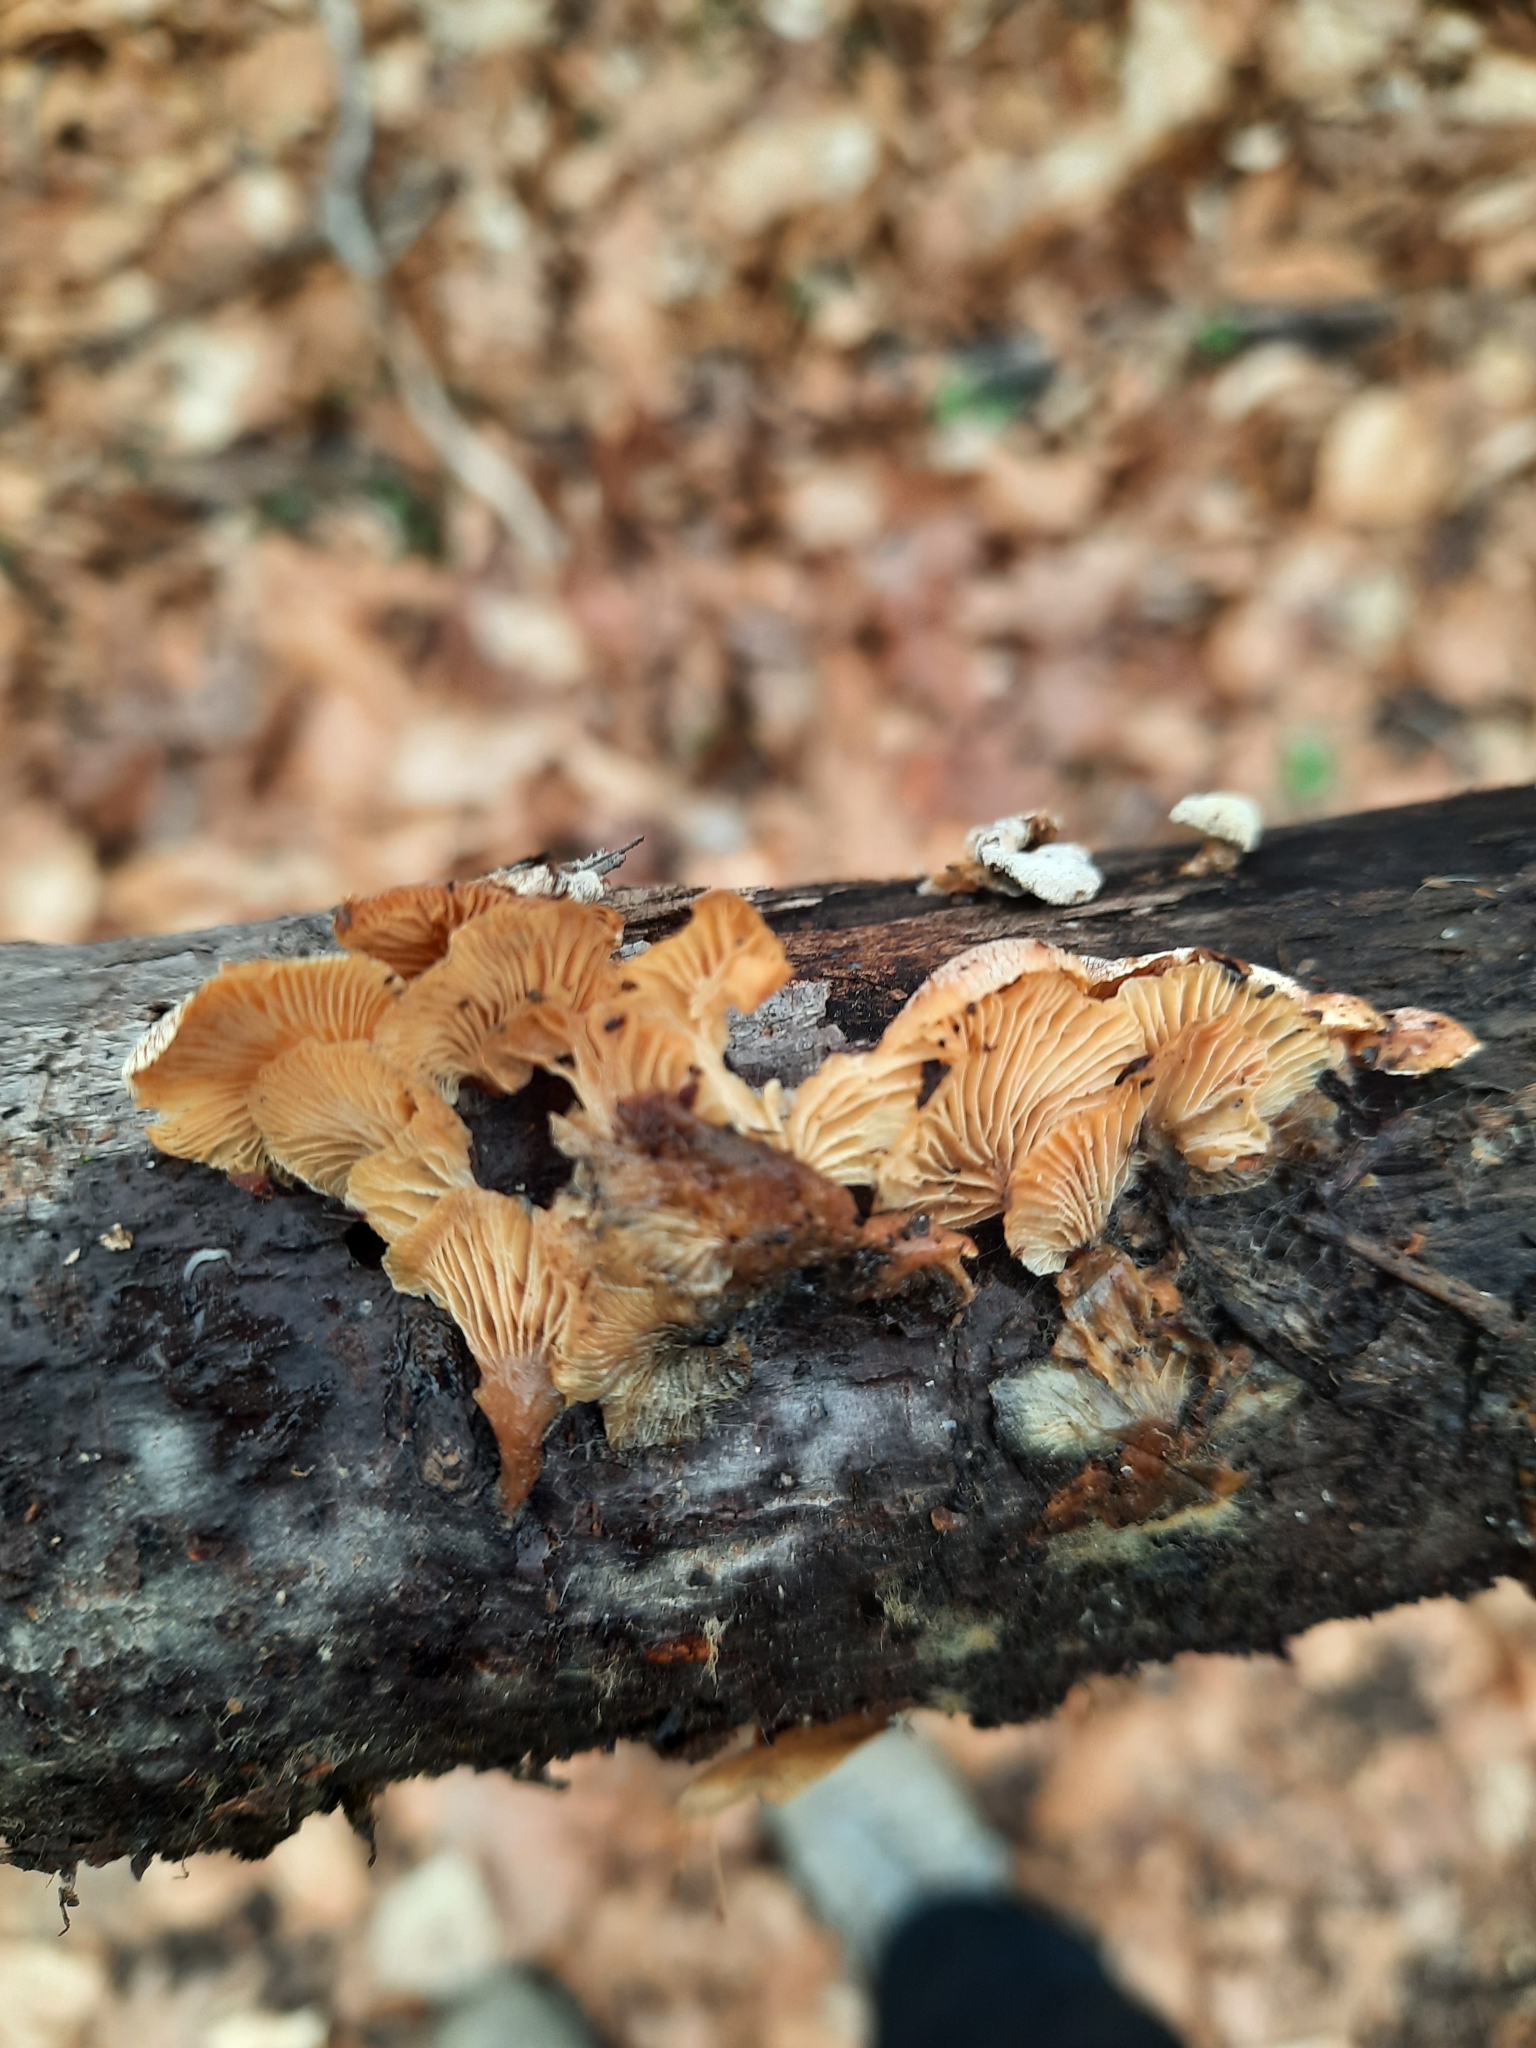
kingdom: Fungi
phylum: Basidiomycota
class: Agaricomycetes
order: Agaricales
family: Mycenaceae
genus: Panellus
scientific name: Panellus stipticus
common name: Bitter oysterling
